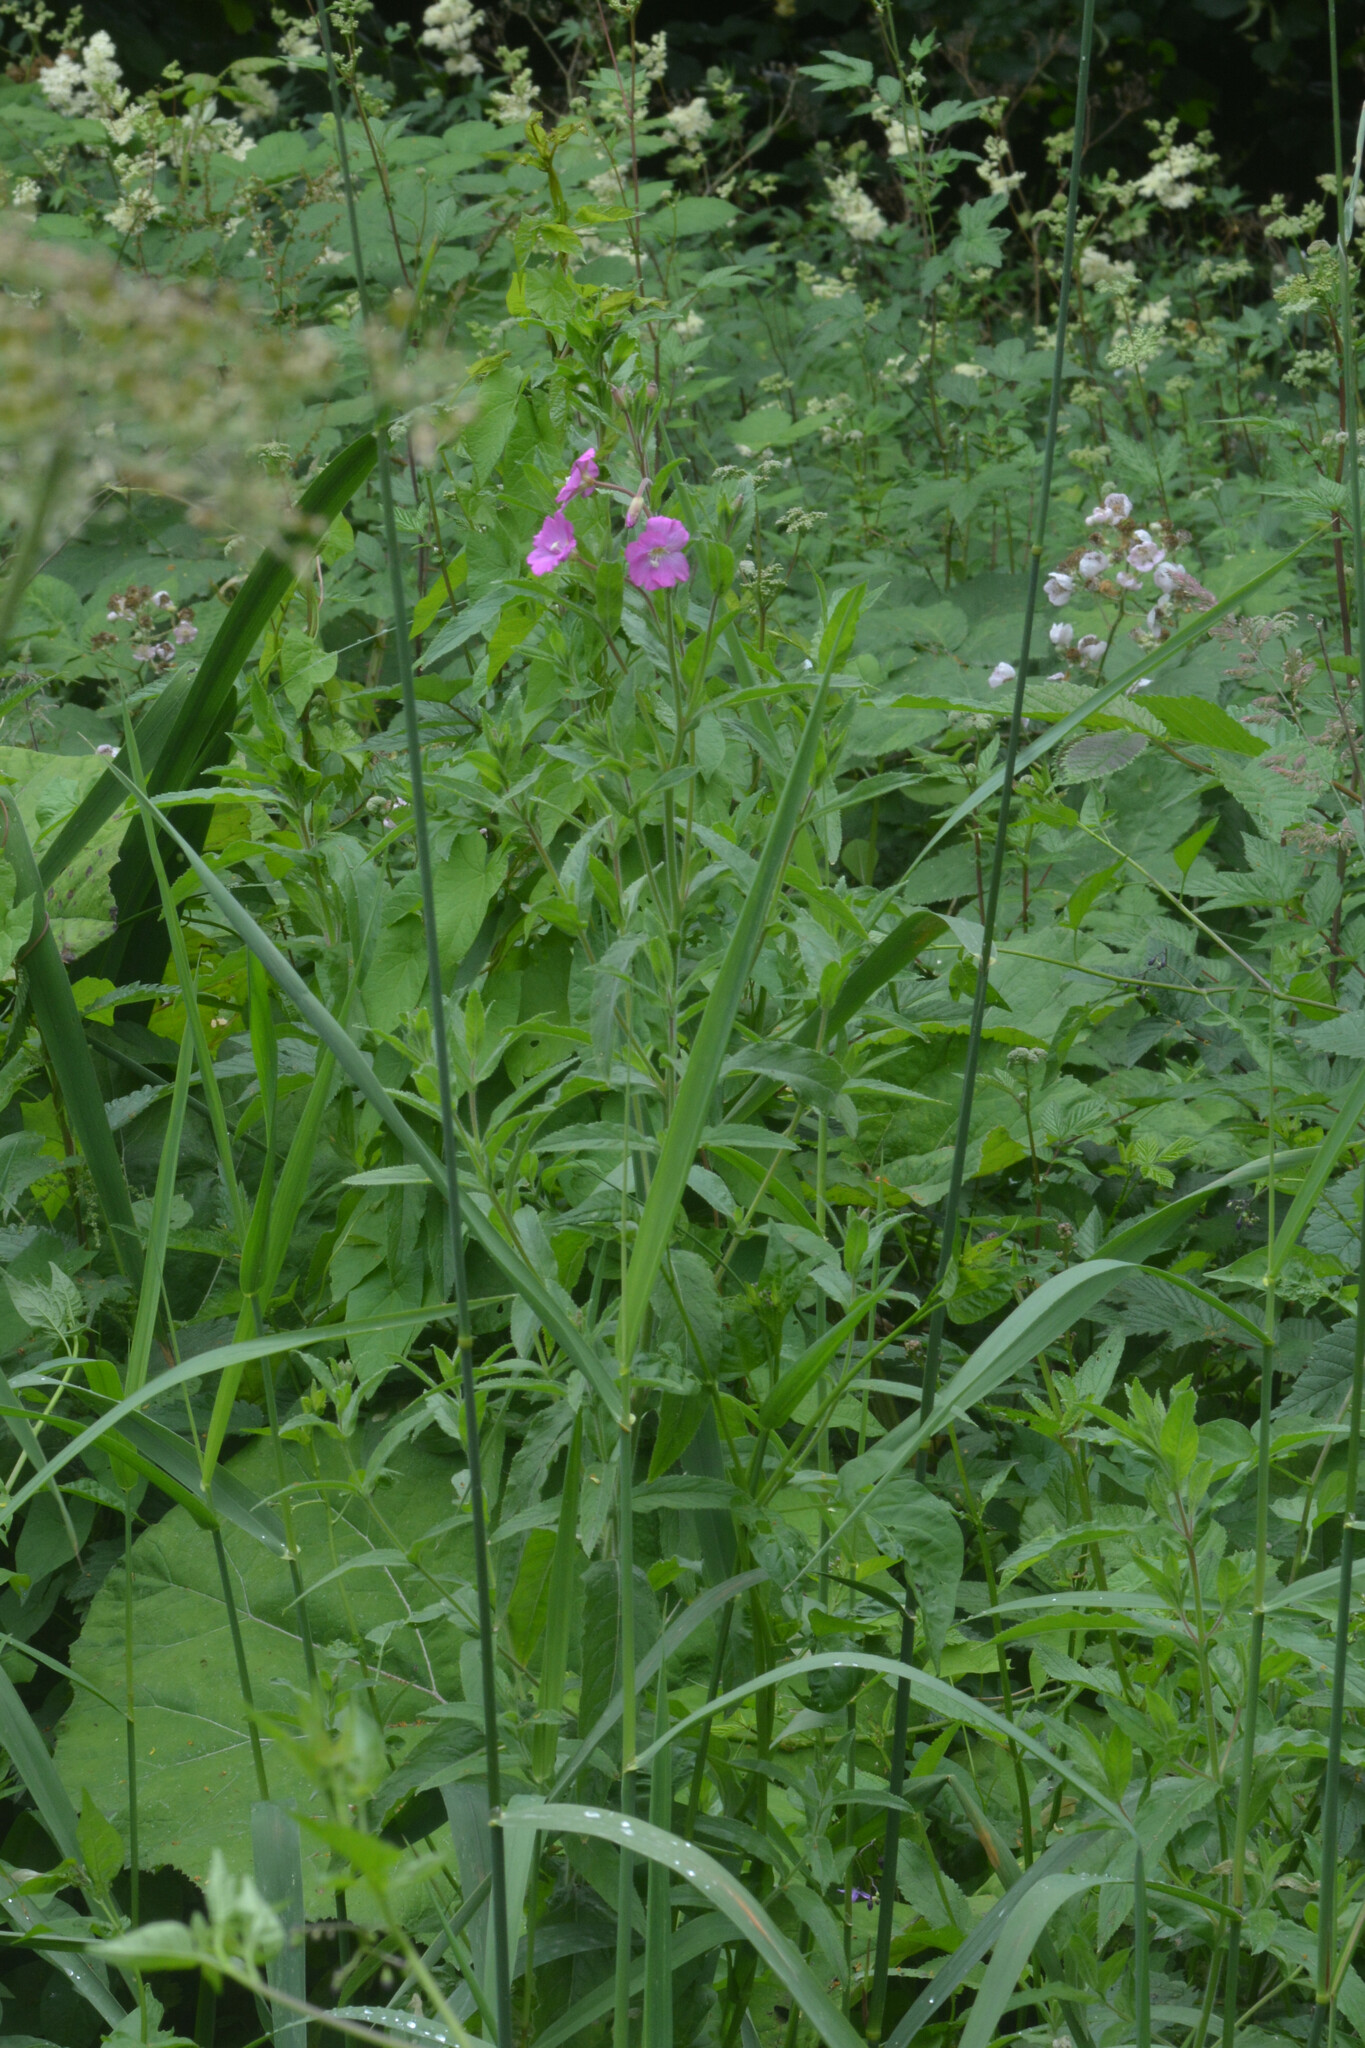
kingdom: Plantae
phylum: Tracheophyta
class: Magnoliopsida
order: Myrtales
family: Onagraceae
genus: Epilobium
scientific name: Epilobium hirsutum
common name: Great willowherb
